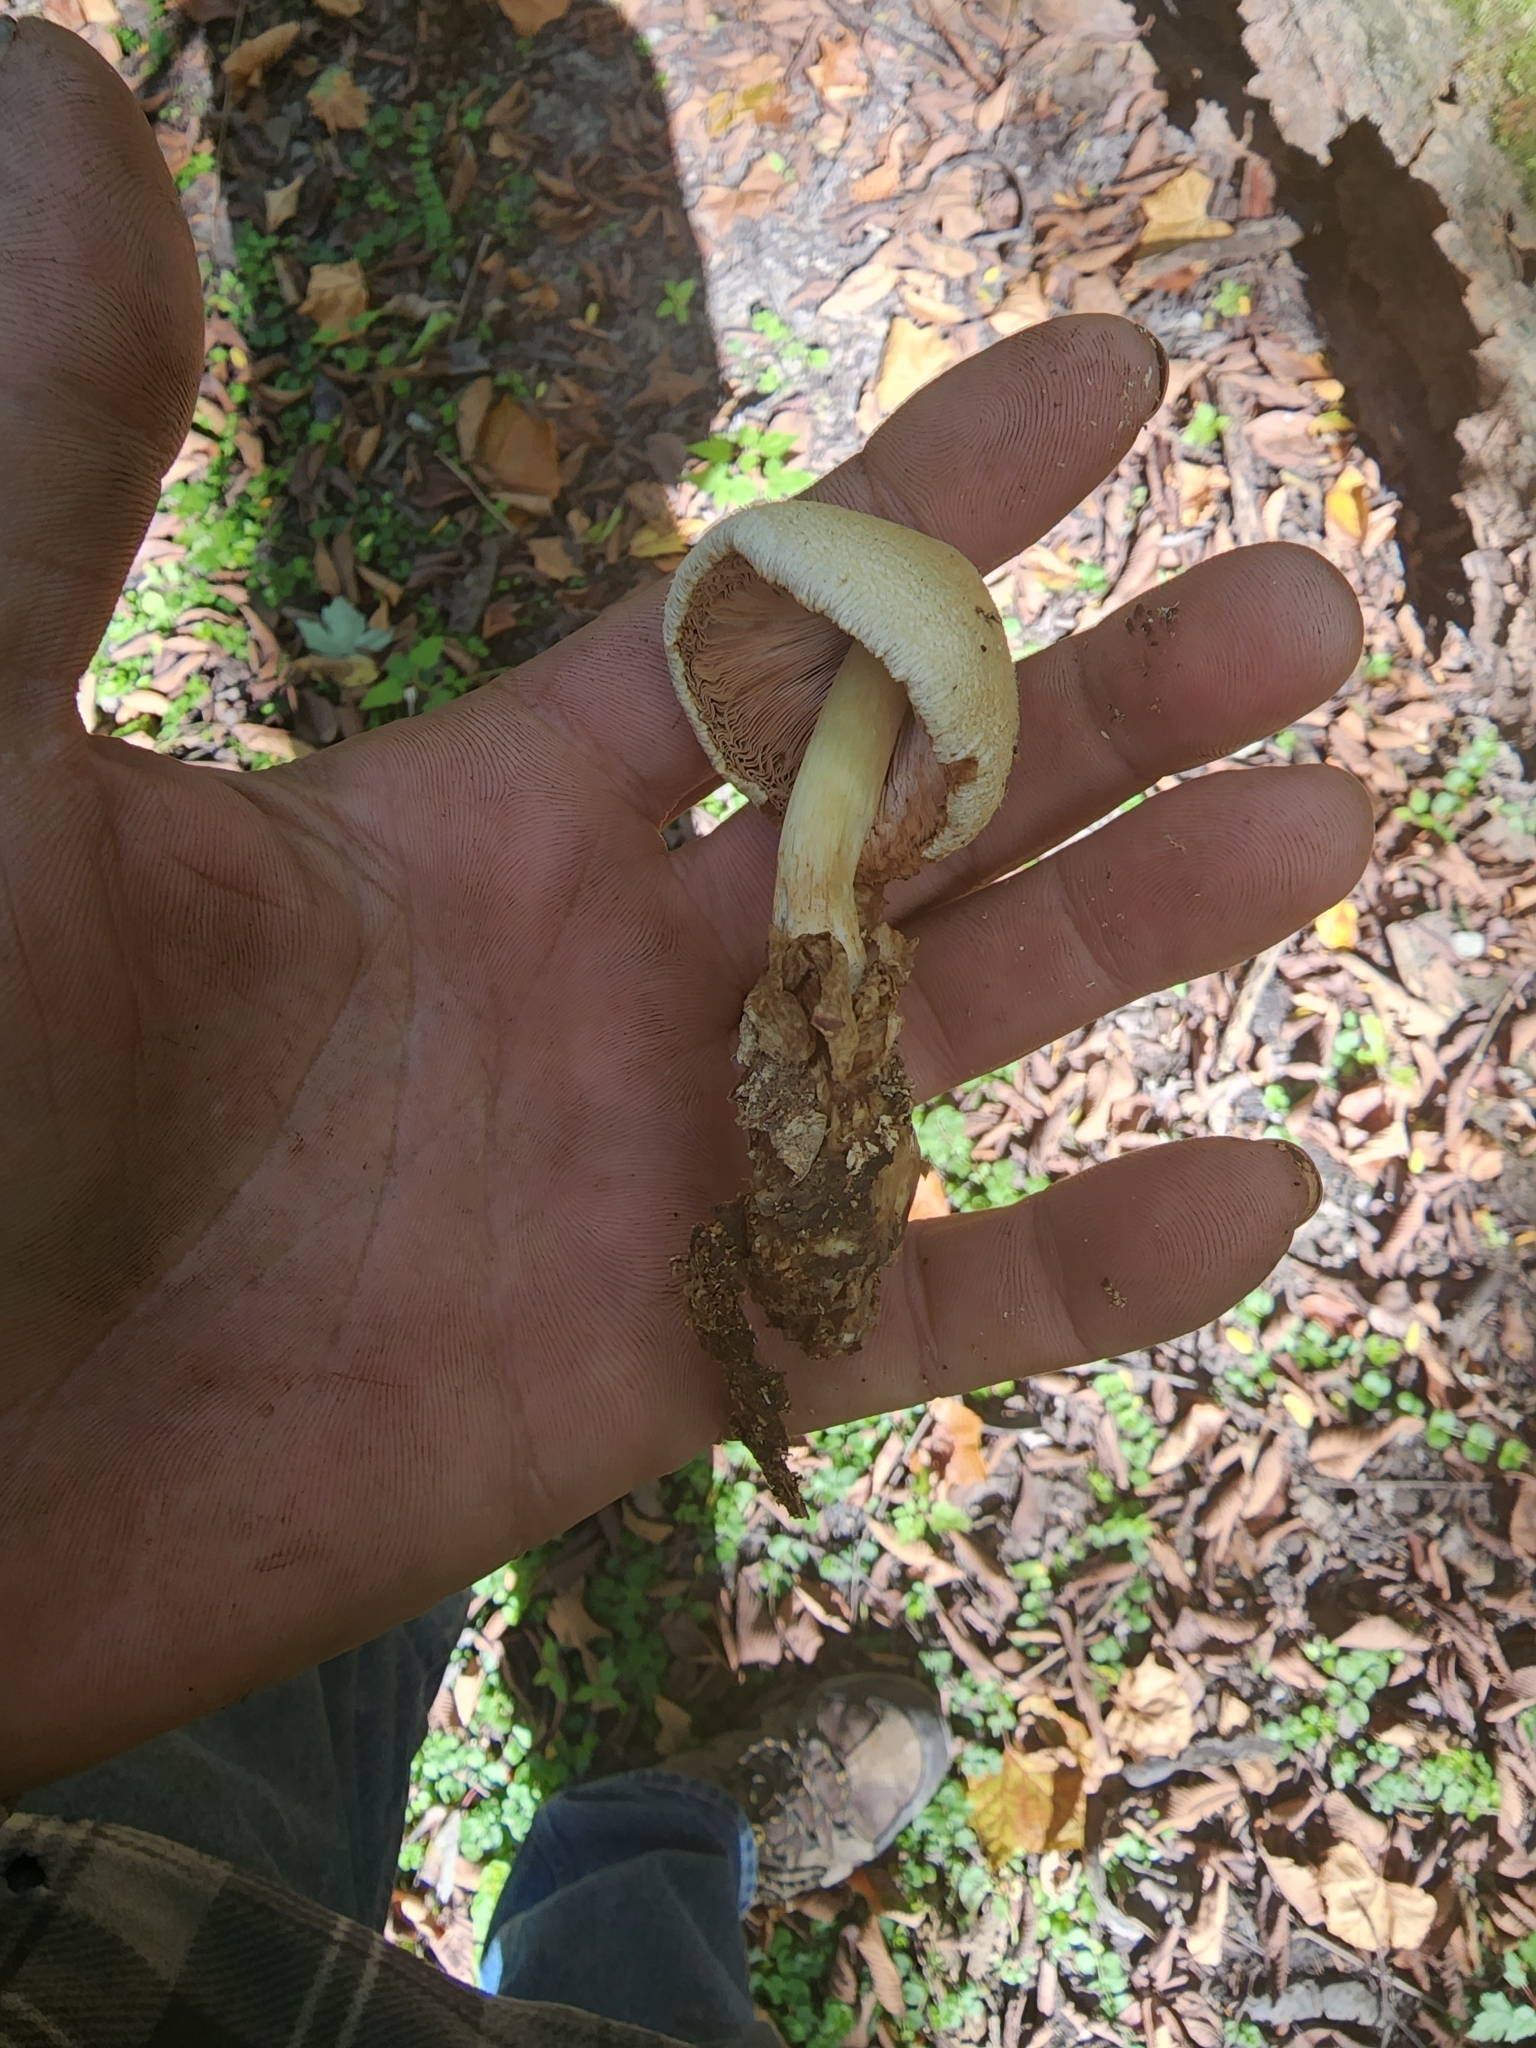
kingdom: Fungi
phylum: Basidiomycota
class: Agaricomycetes
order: Agaricales
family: Pluteaceae
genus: Volvariella
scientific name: Volvariella bombycina
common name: Silky rosegill
